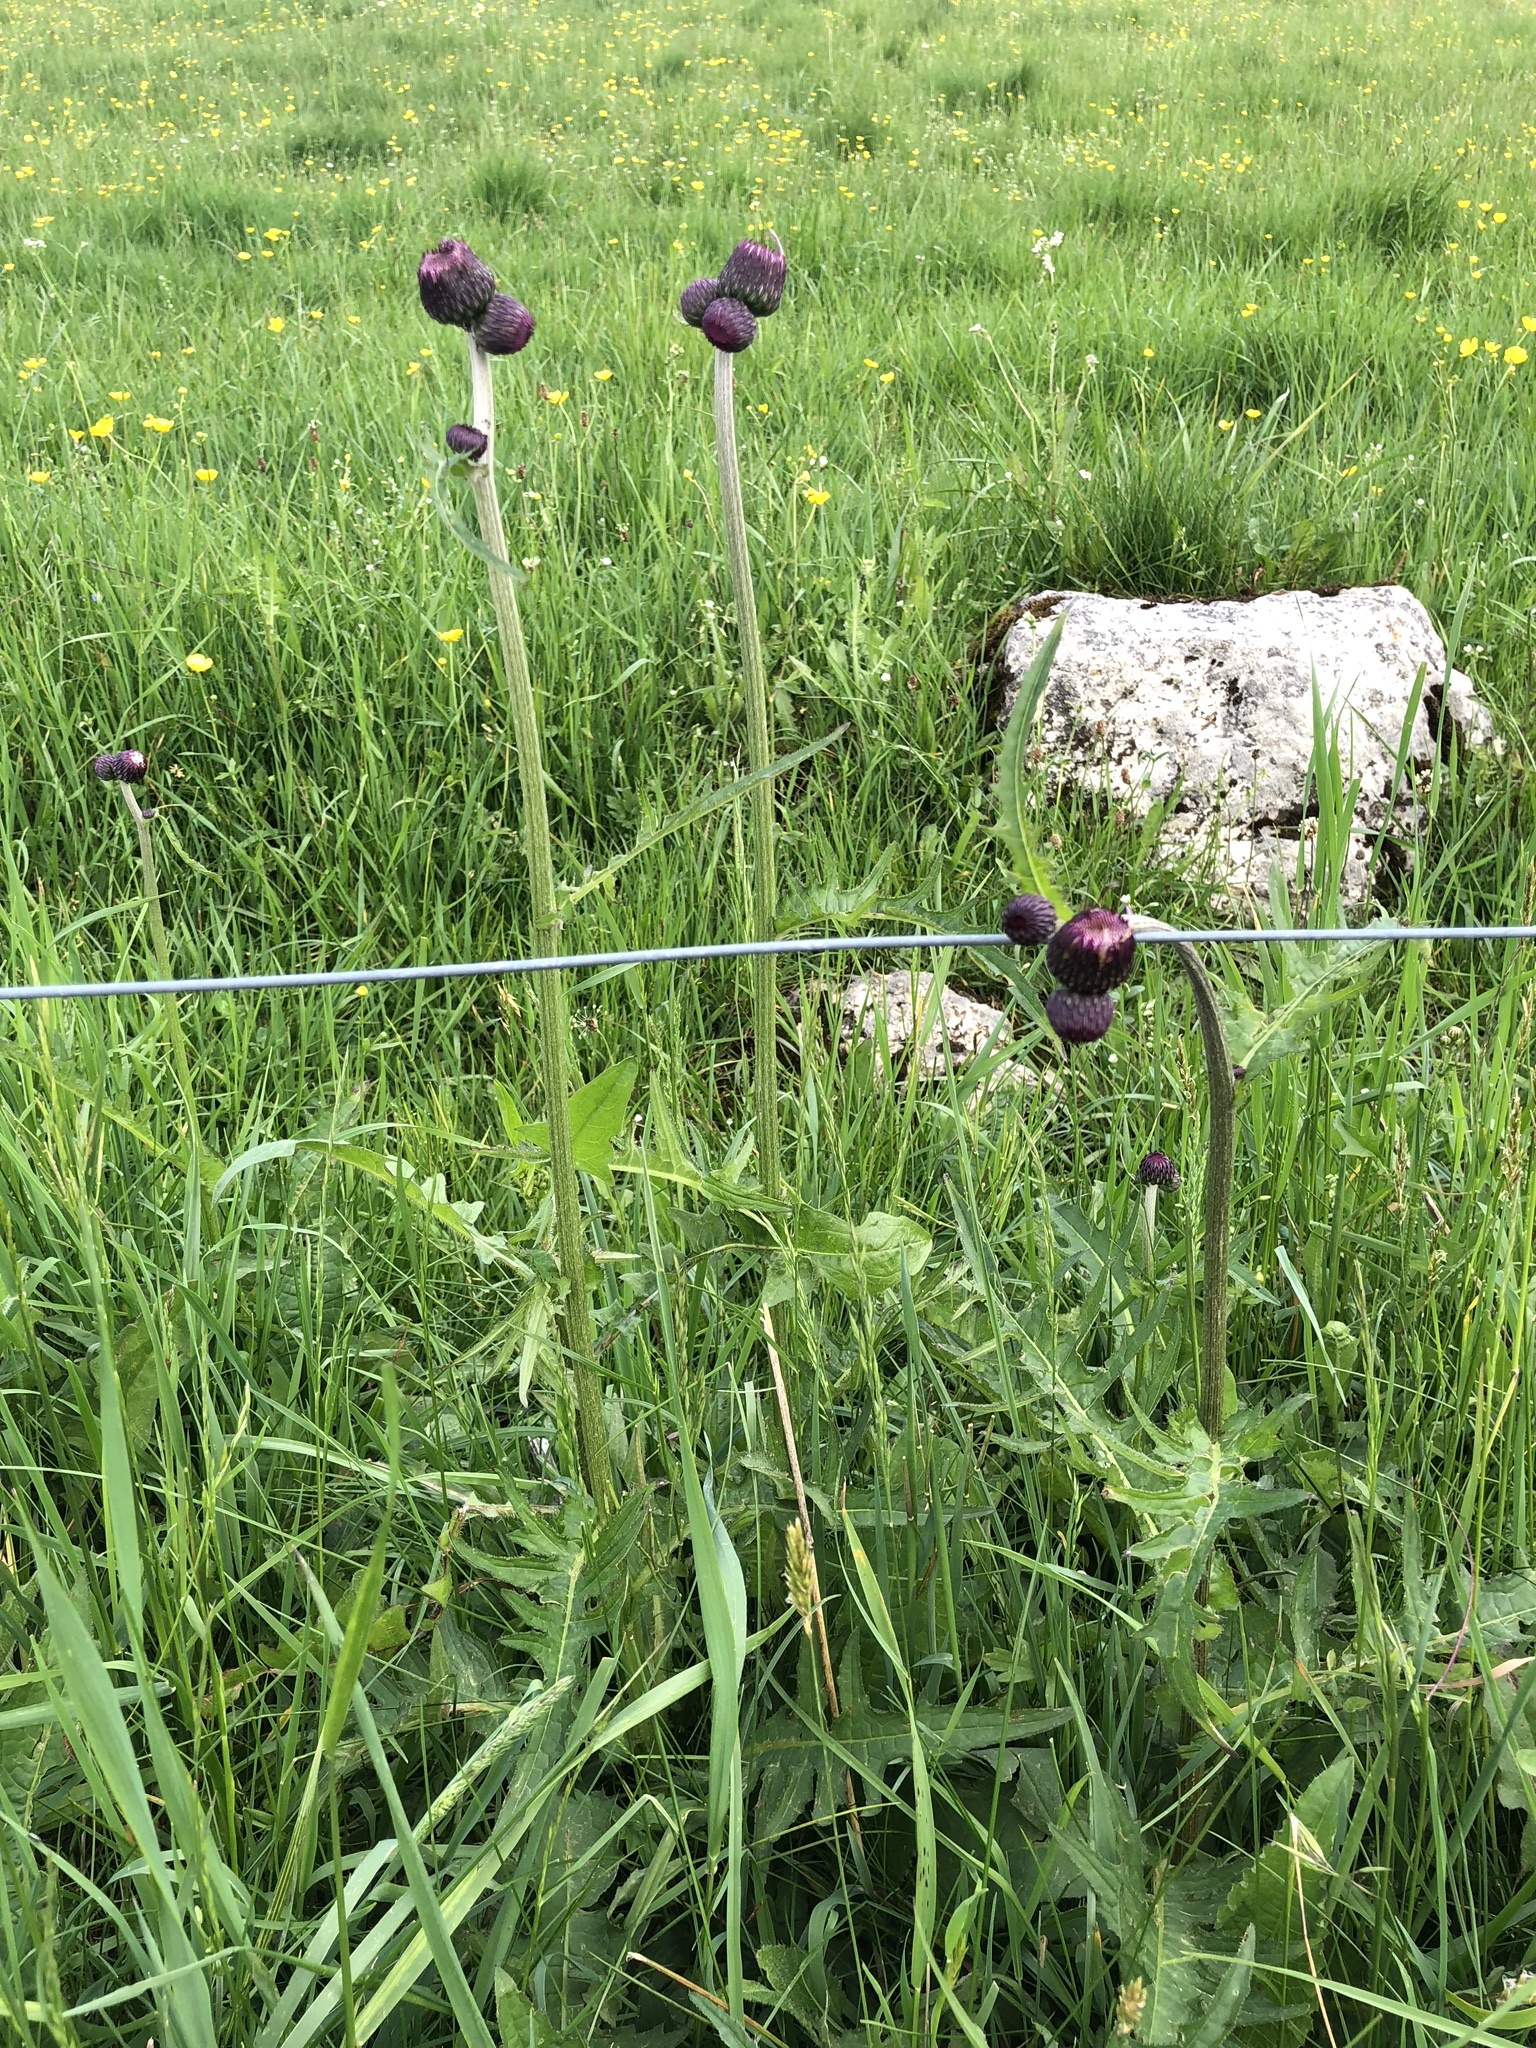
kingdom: Plantae
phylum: Tracheophyta
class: Magnoliopsida
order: Asterales
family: Asteraceae
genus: Cirsium
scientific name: Cirsium rivulare
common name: Brook thistle
